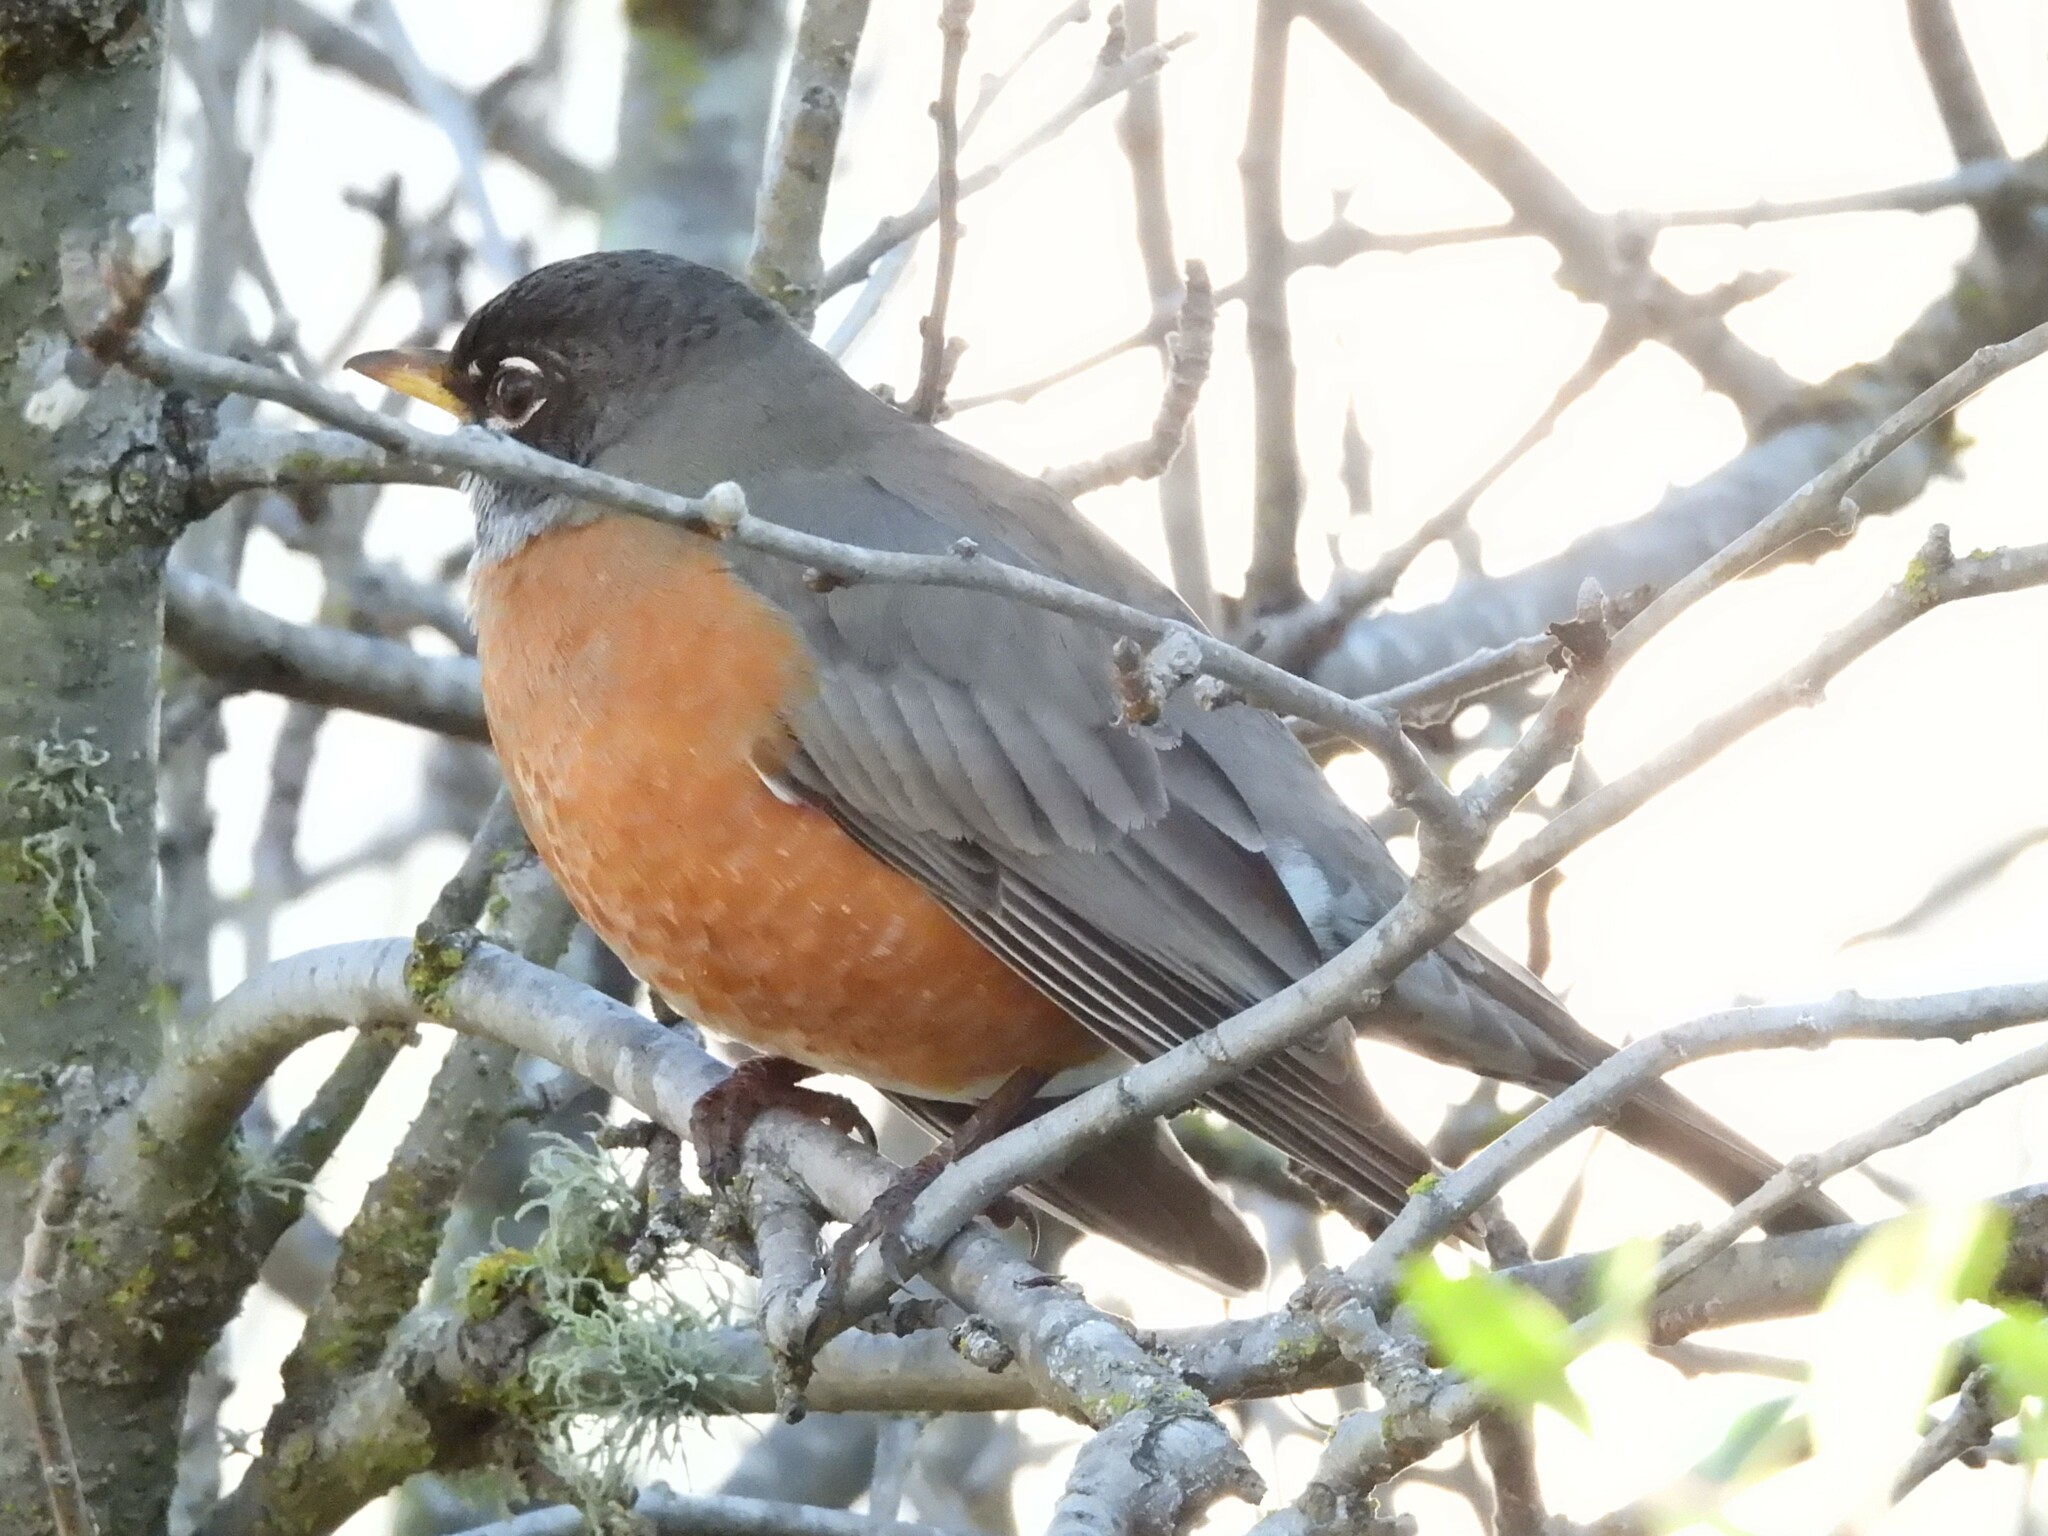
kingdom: Animalia
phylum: Chordata
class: Aves
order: Passeriformes
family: Turdidae
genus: Turdus
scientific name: Turdus migratorius
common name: American robin
